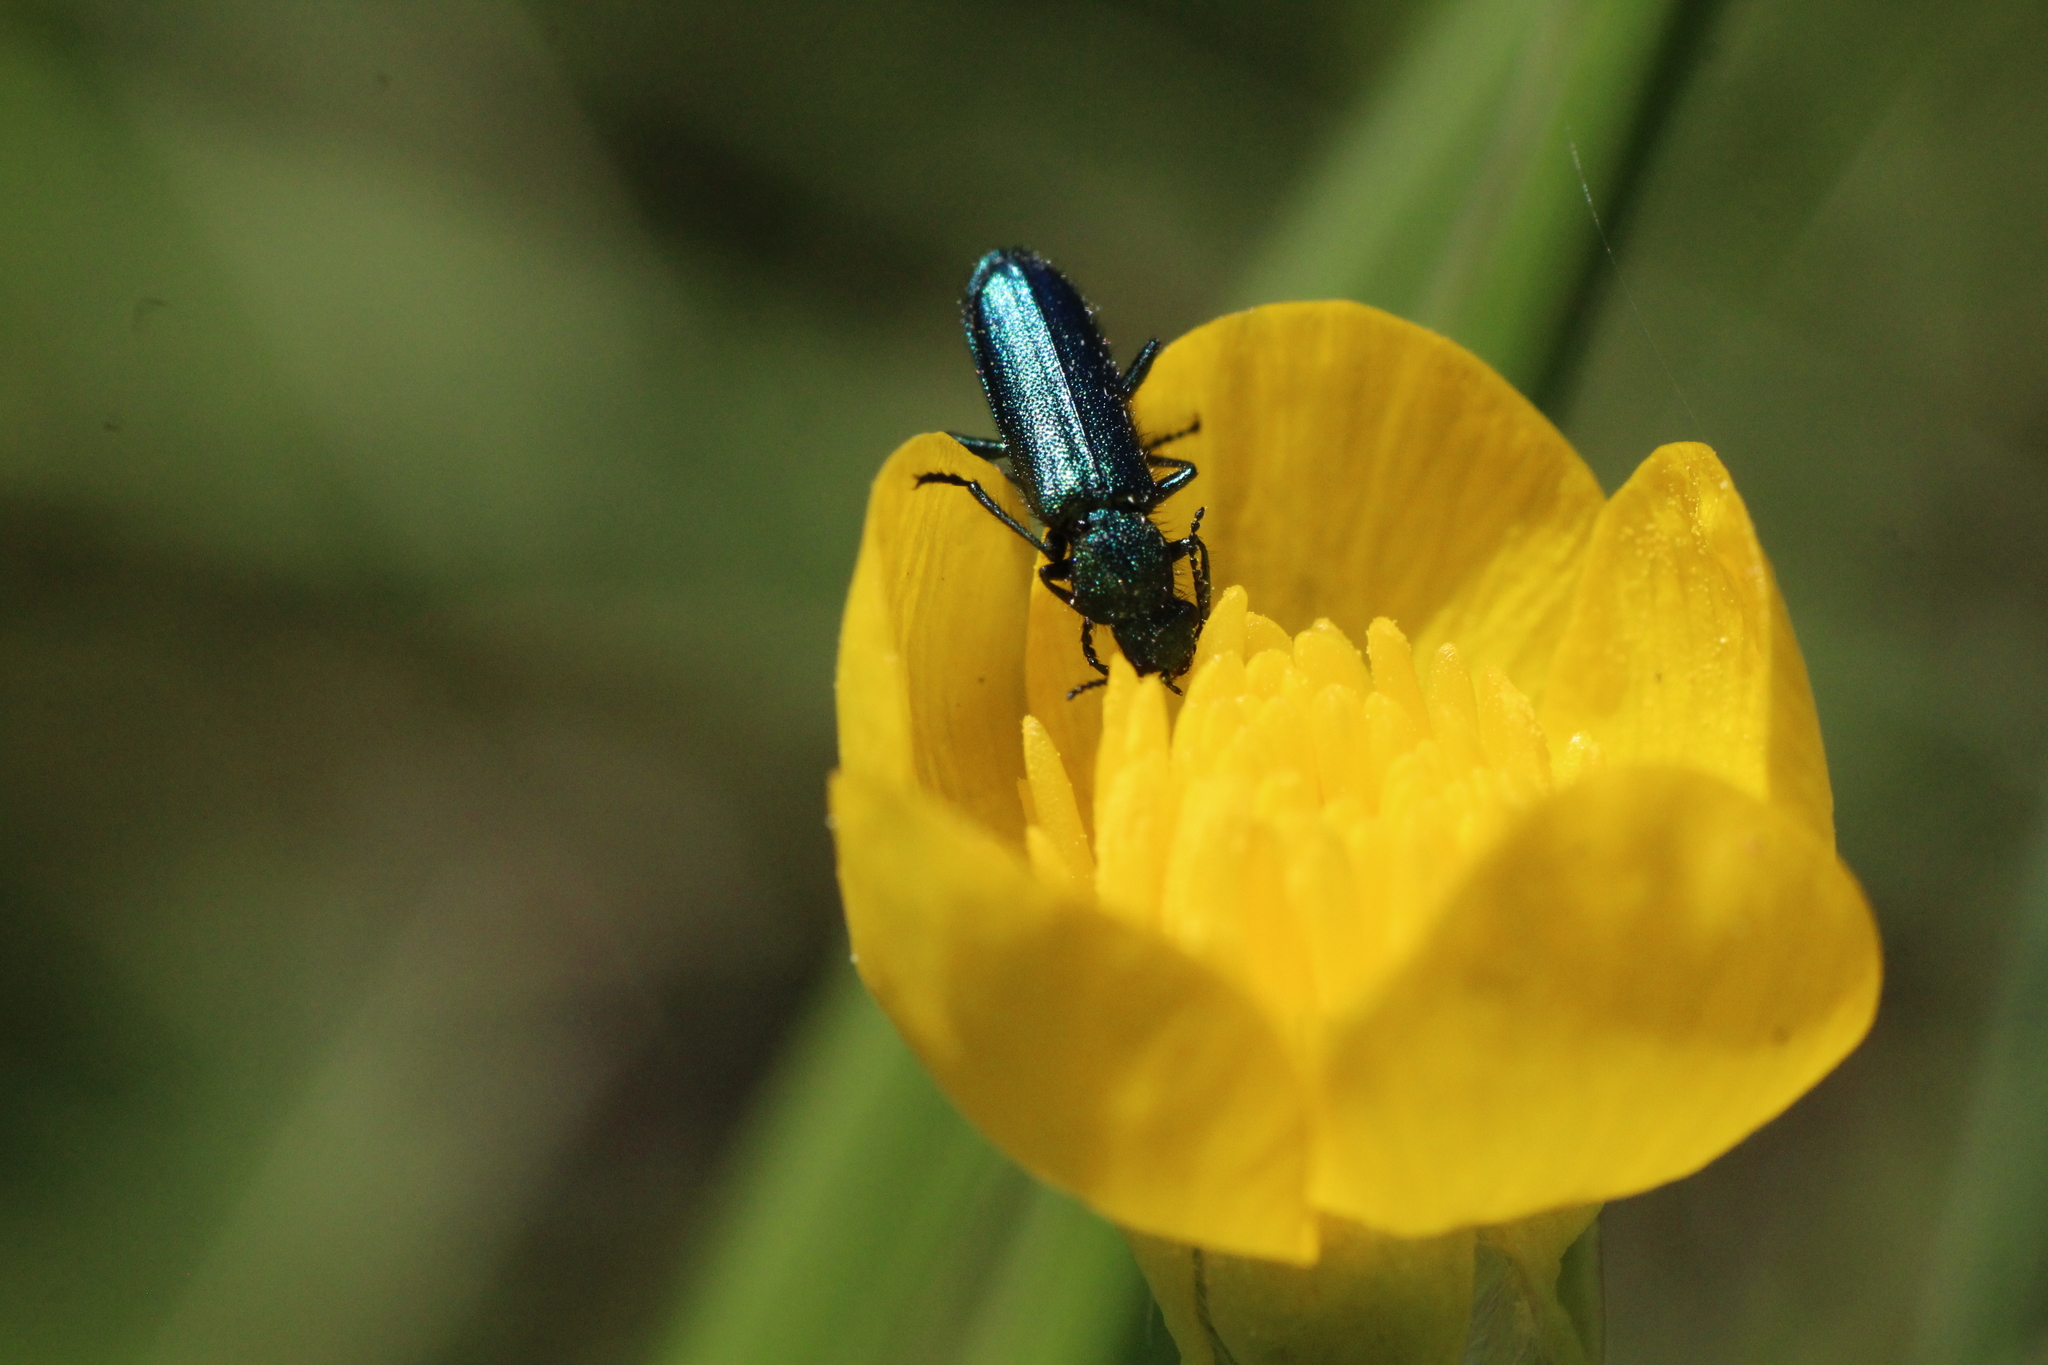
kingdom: Animalia
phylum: Arthropoda
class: Insecta
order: Coleoptera
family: Dasytidae
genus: Psilothrix
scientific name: Psilothrix viridicoerulea
